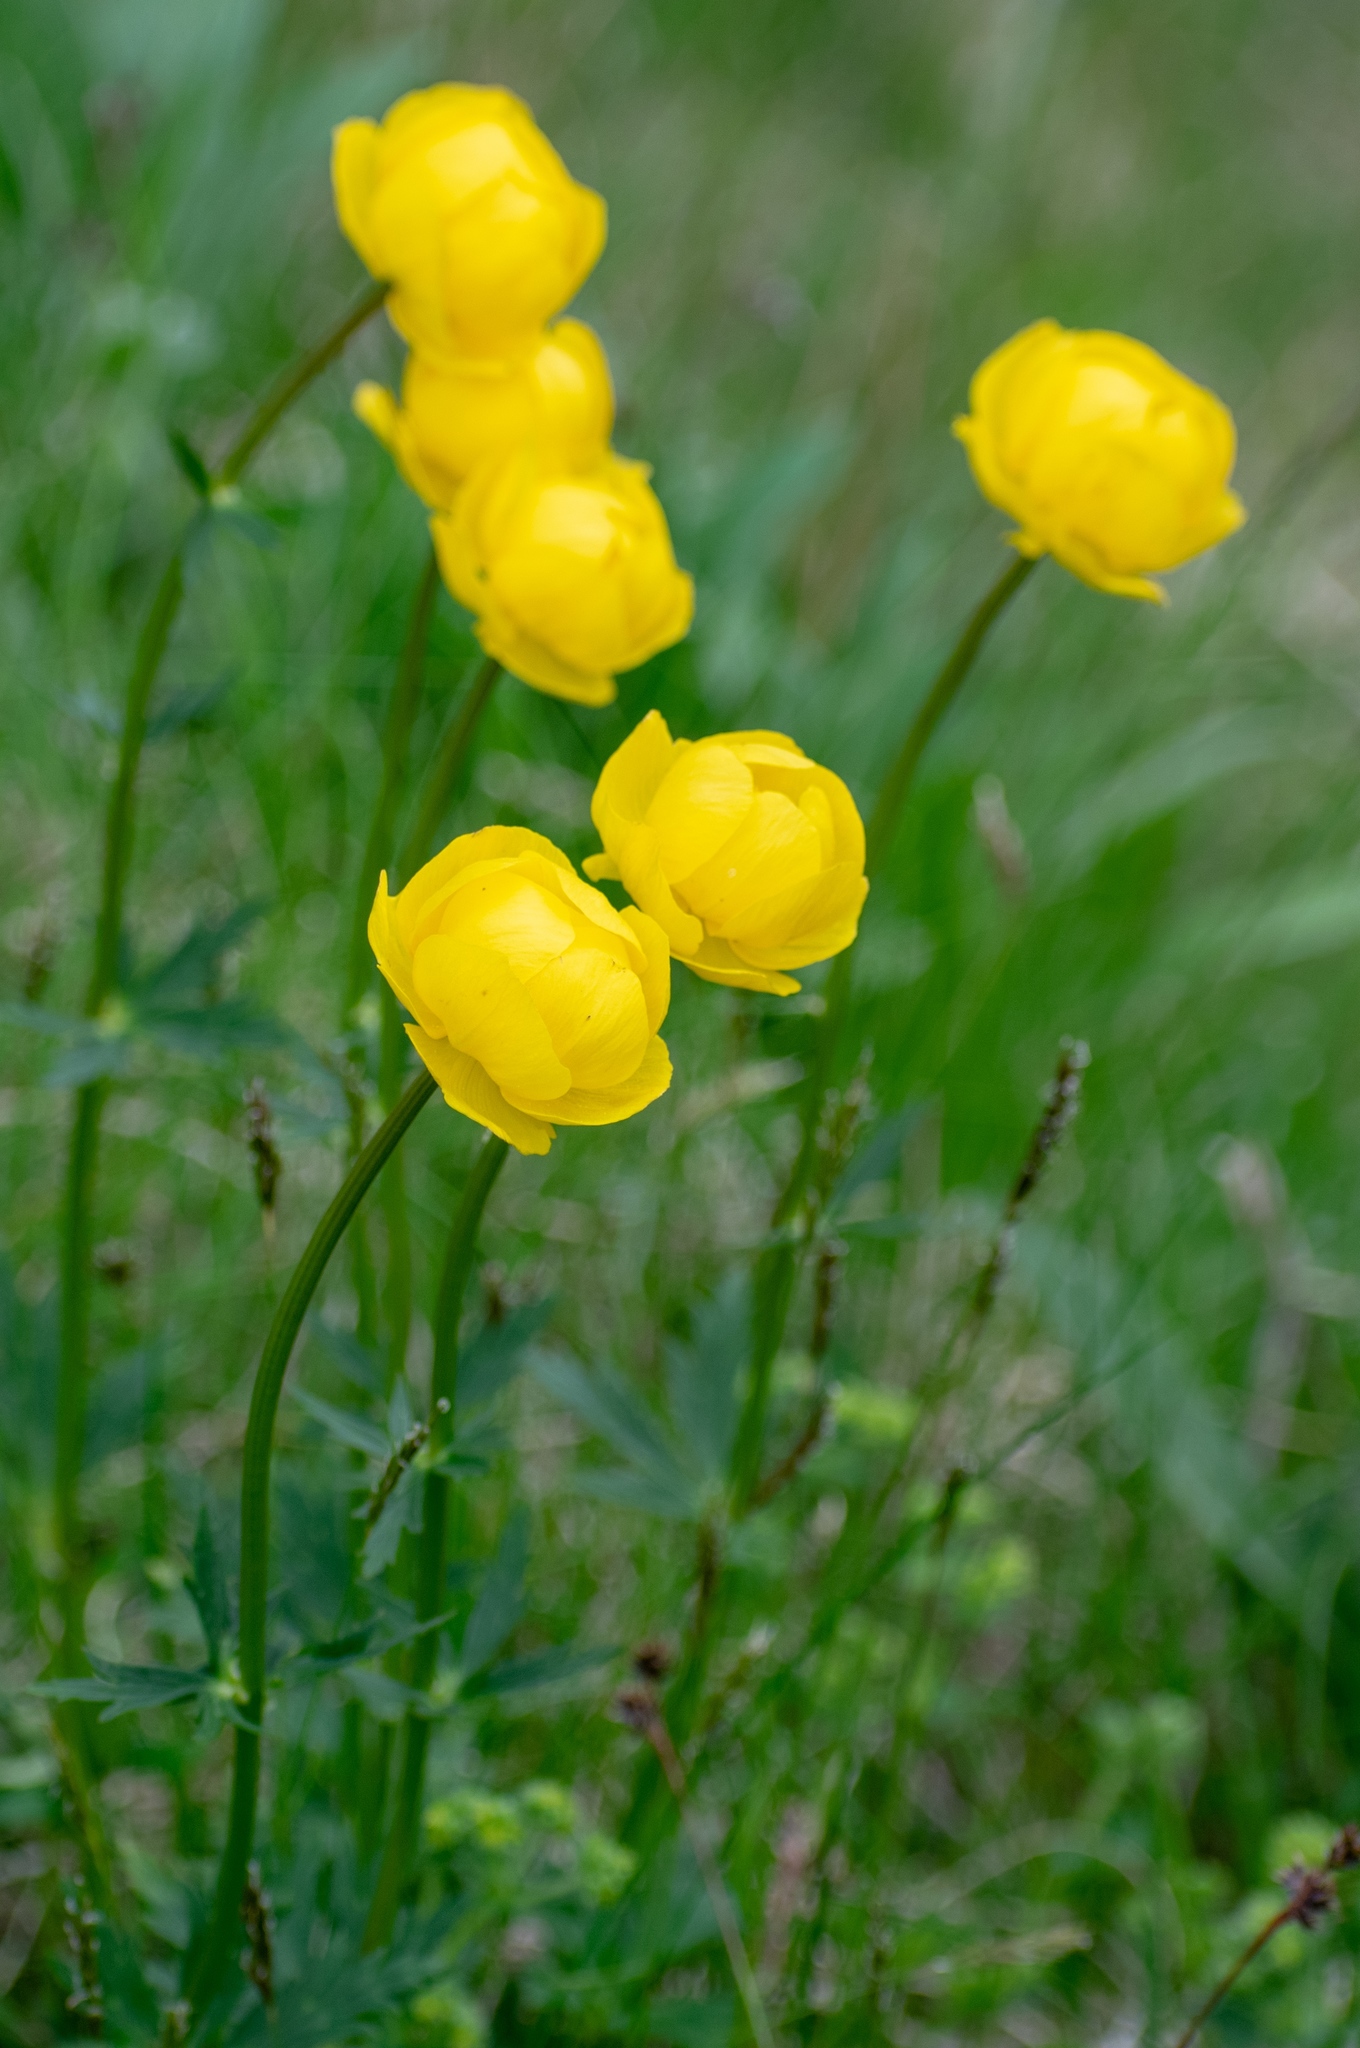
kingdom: Plantae
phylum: Tracheophyta
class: Magnoliopsida
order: Ranunculales
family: Ranunculaceae
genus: Trollius
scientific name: Trollius europaeus
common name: European globeflower
